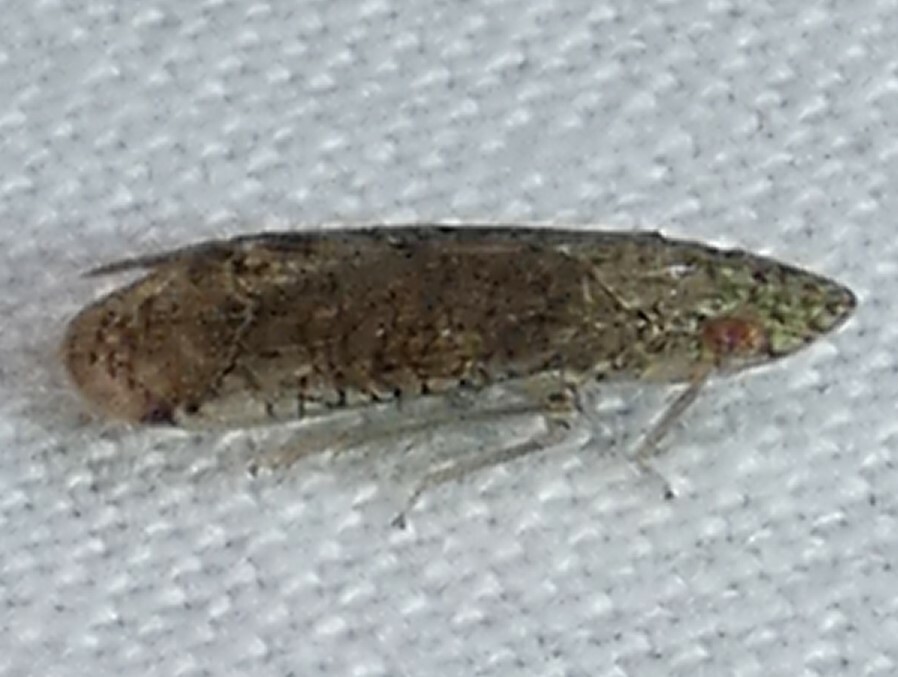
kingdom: Animalia
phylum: Arthropoda
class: Insecta
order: Hemiptera
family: Tropiduchidae
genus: Pelitropis
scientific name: Pelitropis rotulata
